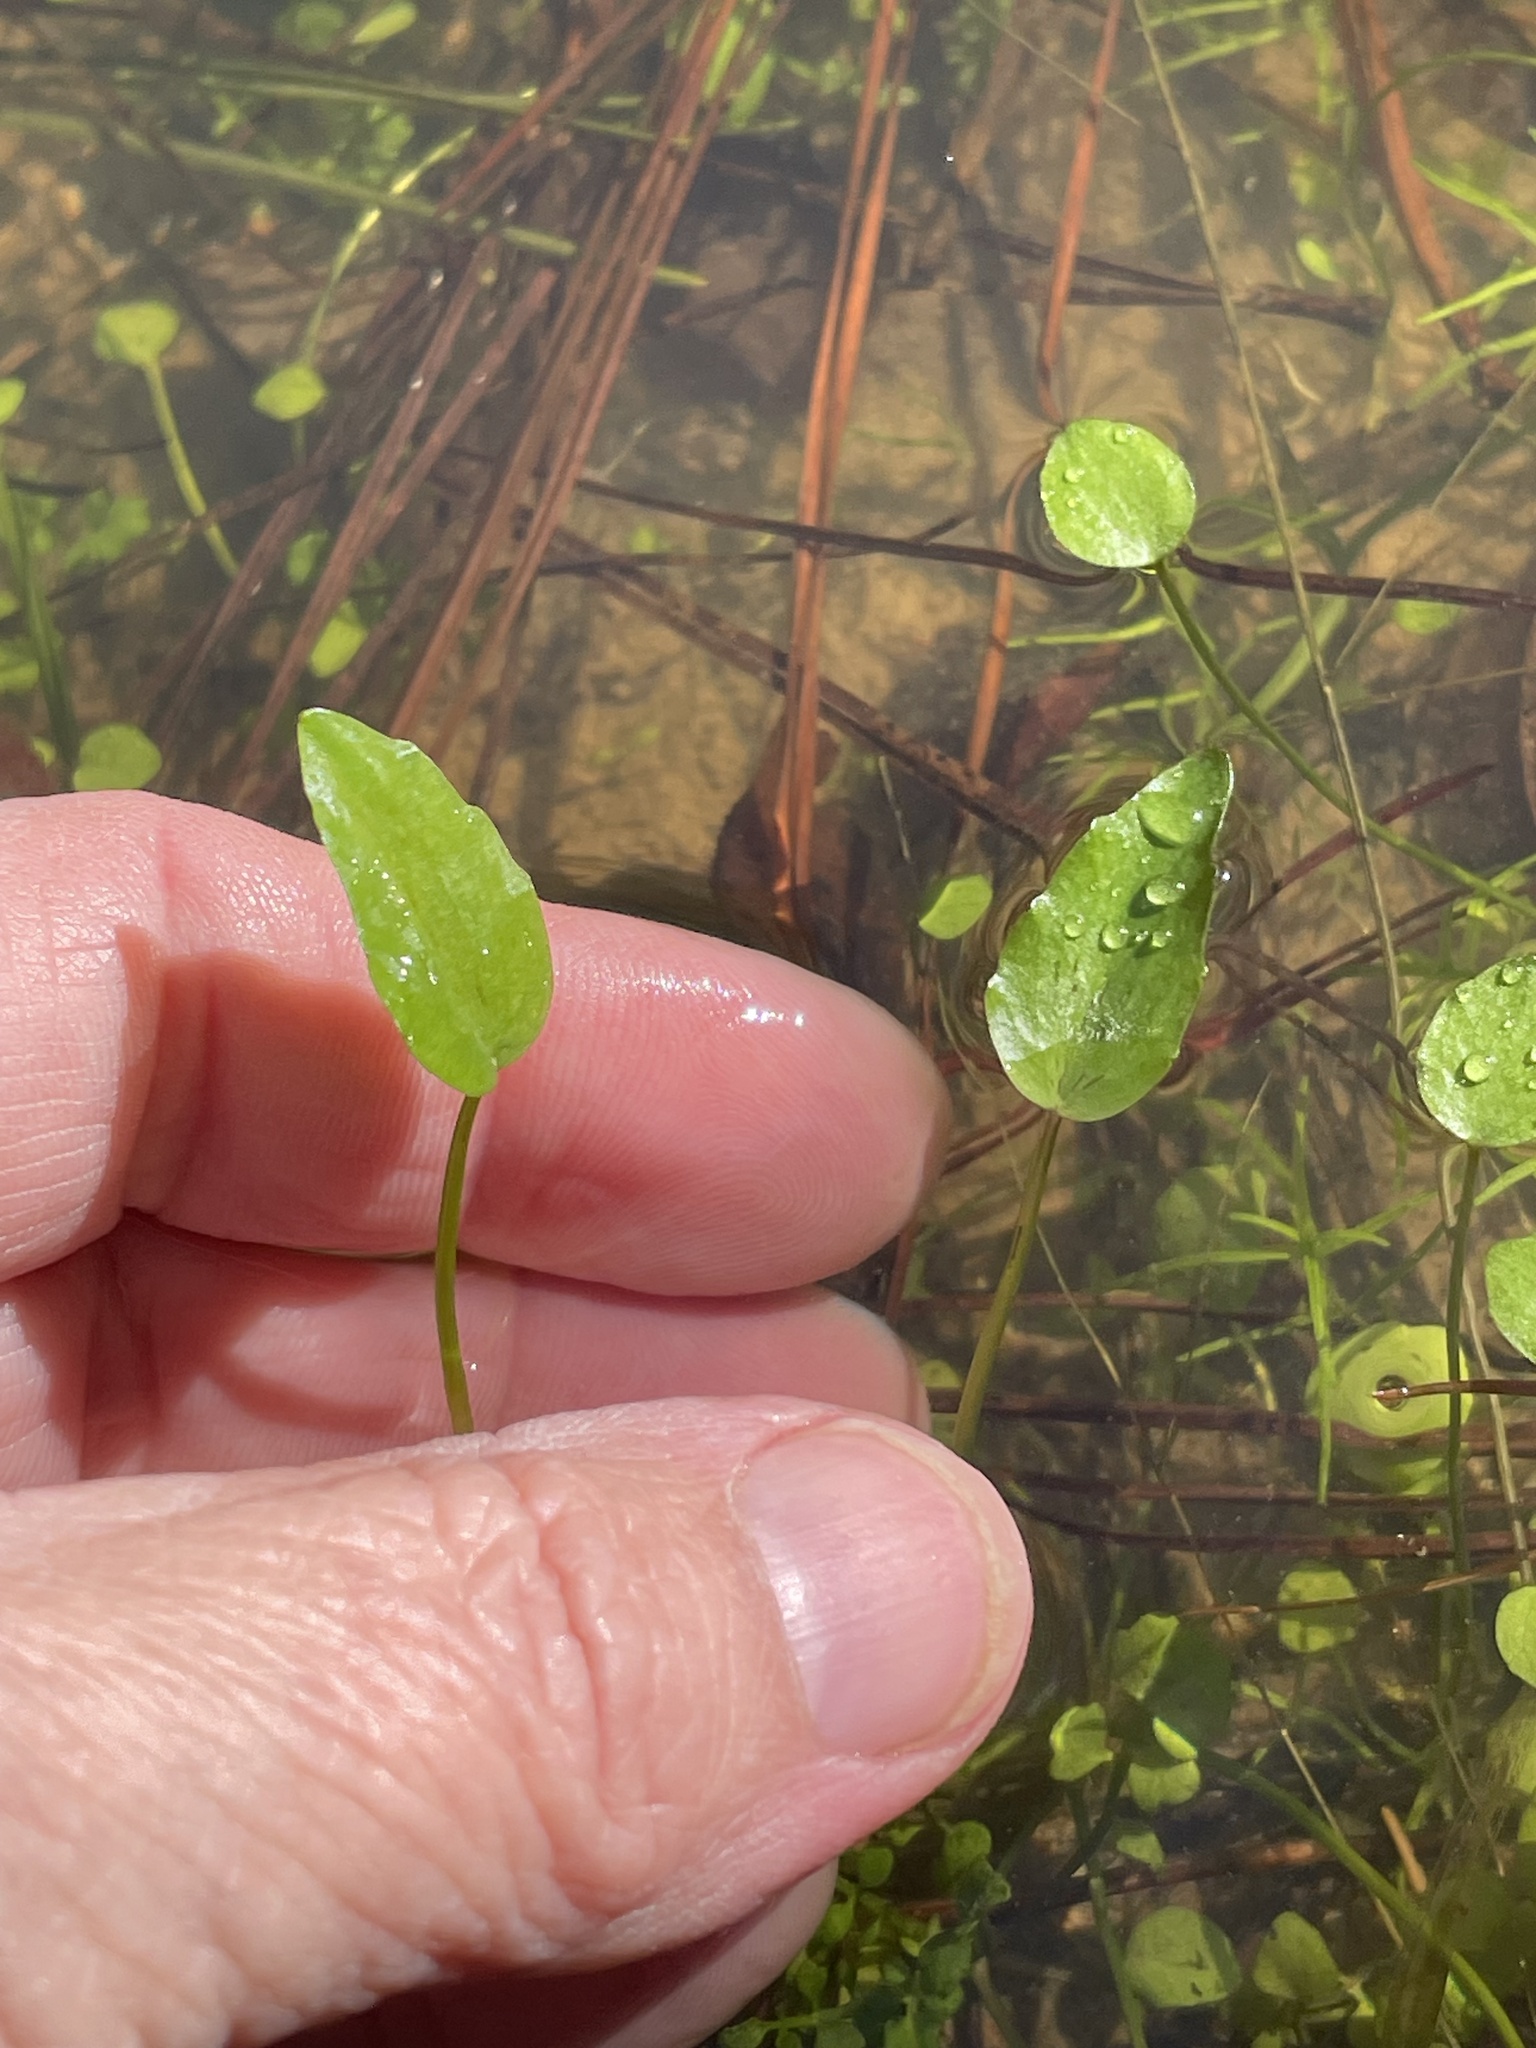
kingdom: Plantae
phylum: Tracheophyta
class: Magnoliopsida
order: Ranunculales
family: Ranunculaceae
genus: Ranunculus
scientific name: Ranunculus pusillus
